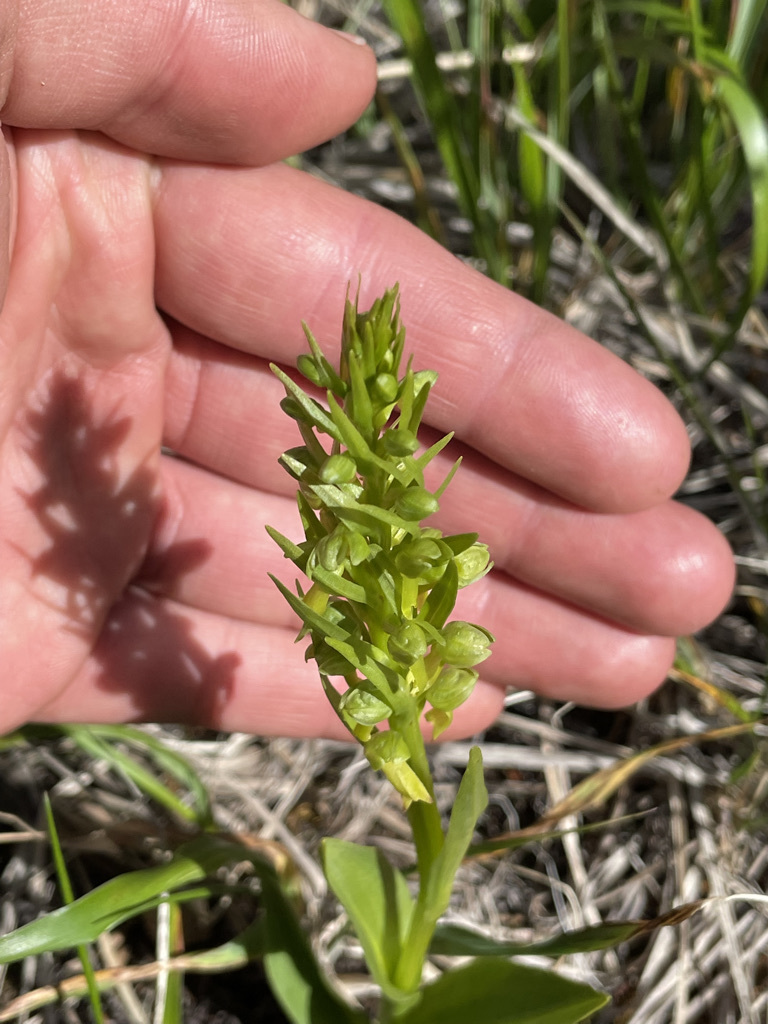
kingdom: Plantae
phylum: Tracheophyta
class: Liliopsida
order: Asparagales
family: Orchidaceae
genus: Dactylorhiza
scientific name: Dactylorhiza viridis
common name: Longbract frog orchid
